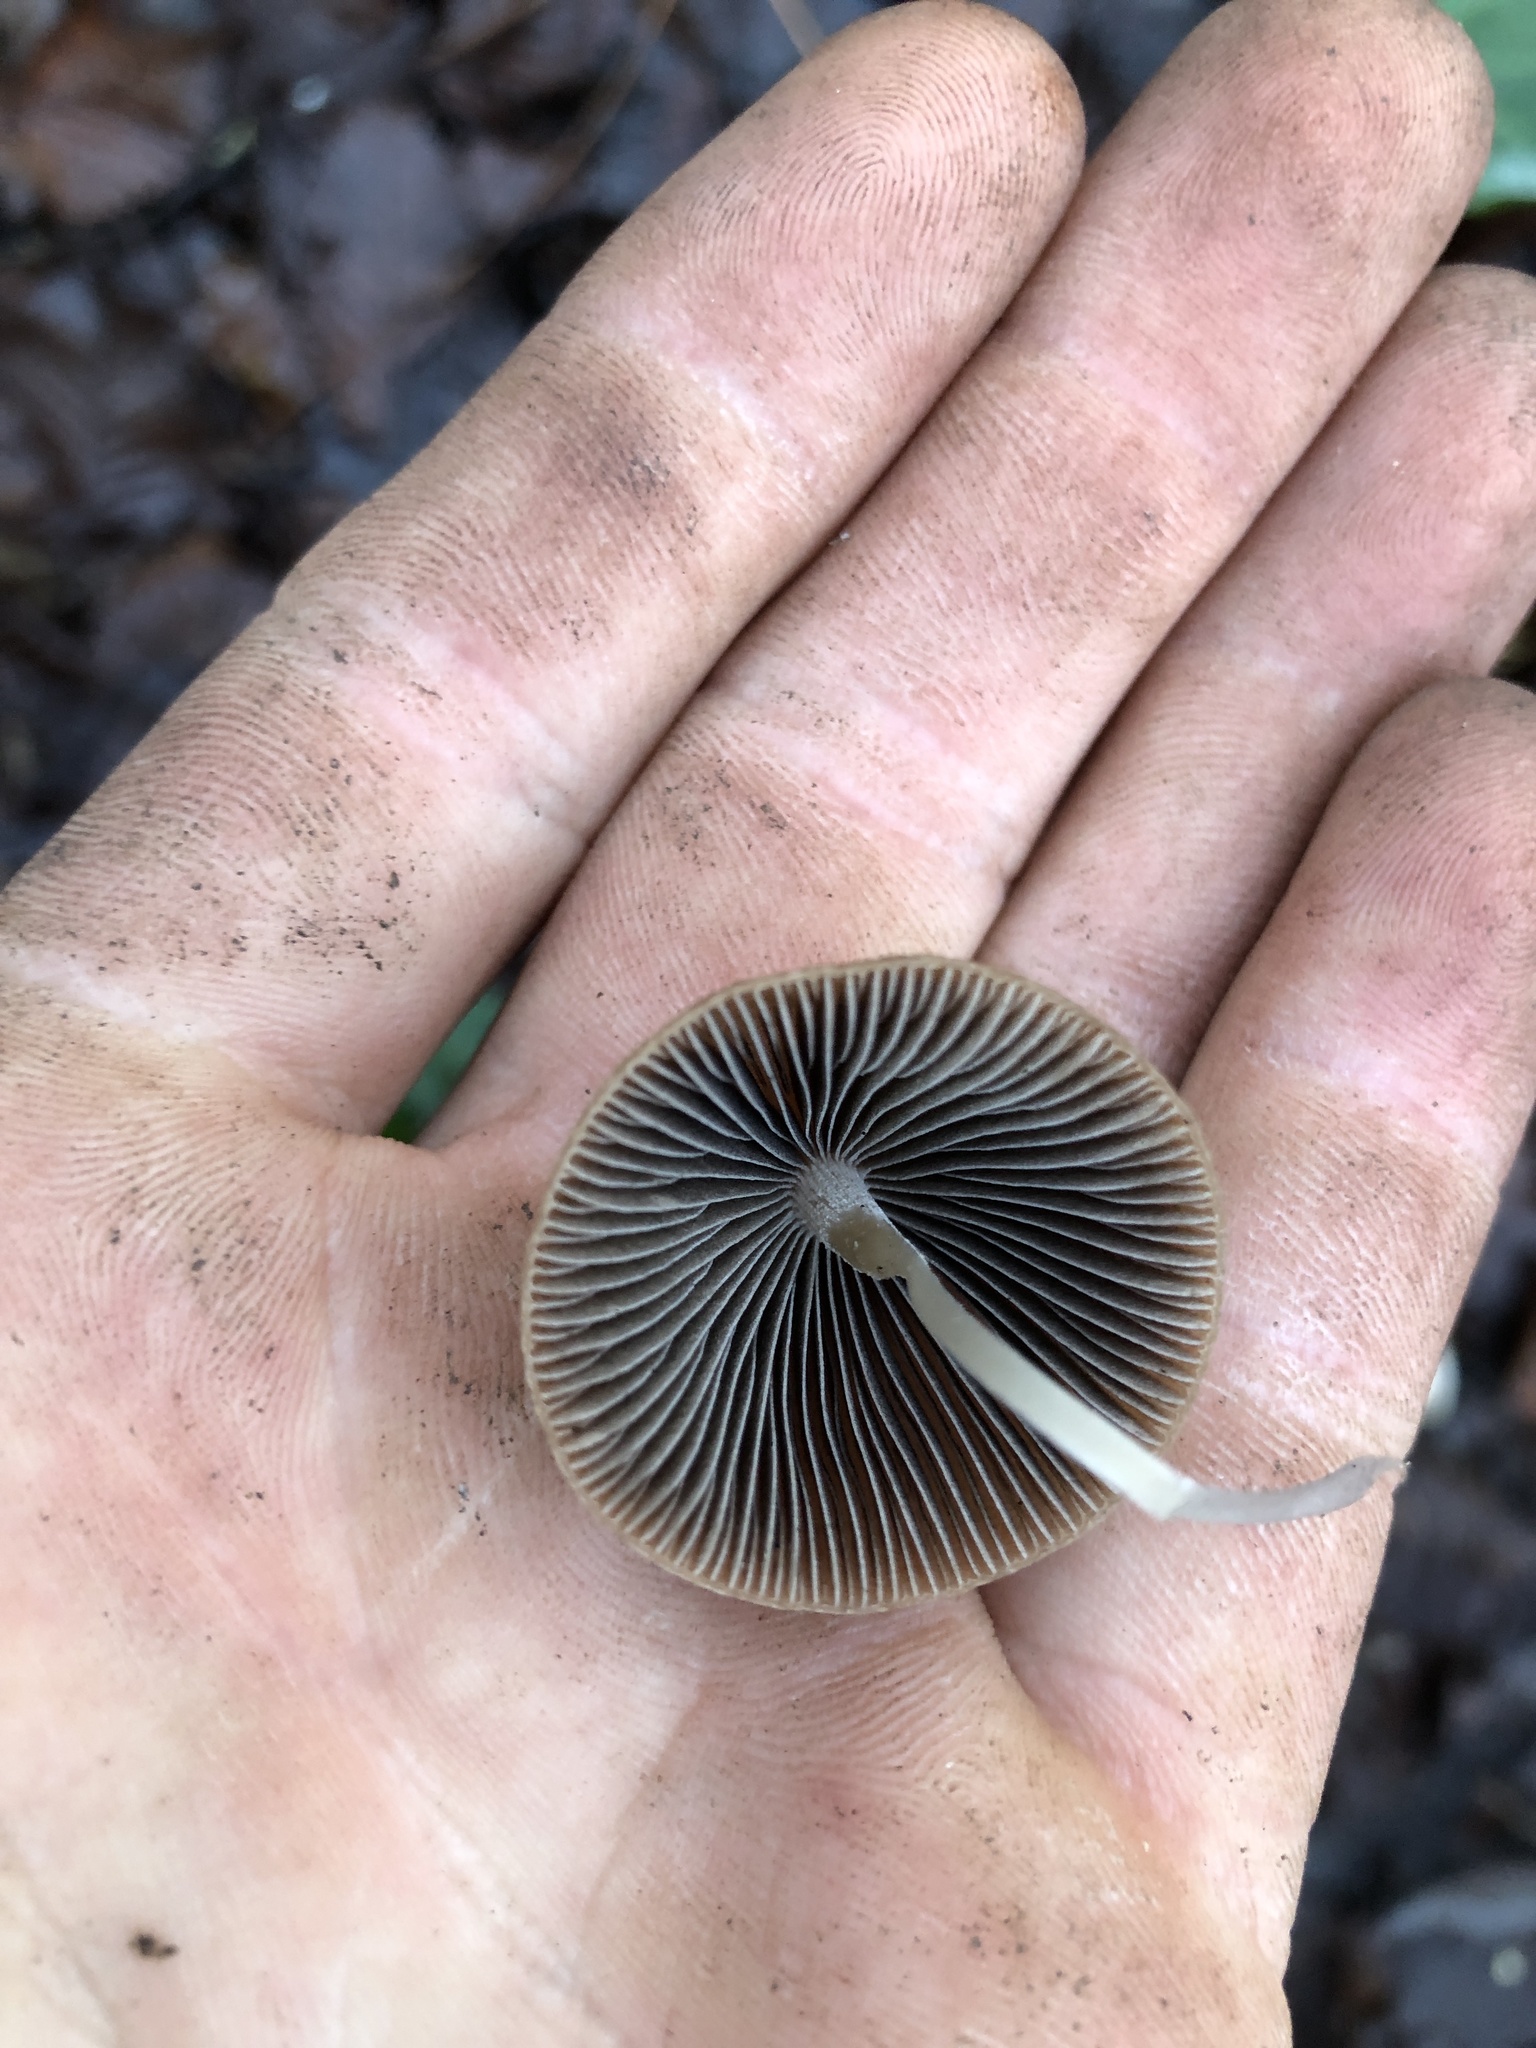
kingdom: Fungi
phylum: Basidiomycota
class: Agaricomycetes
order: Agaricales
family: Psathyrellaceae
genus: Parasola
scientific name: Parasola conopilea
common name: Conical brittlestem
